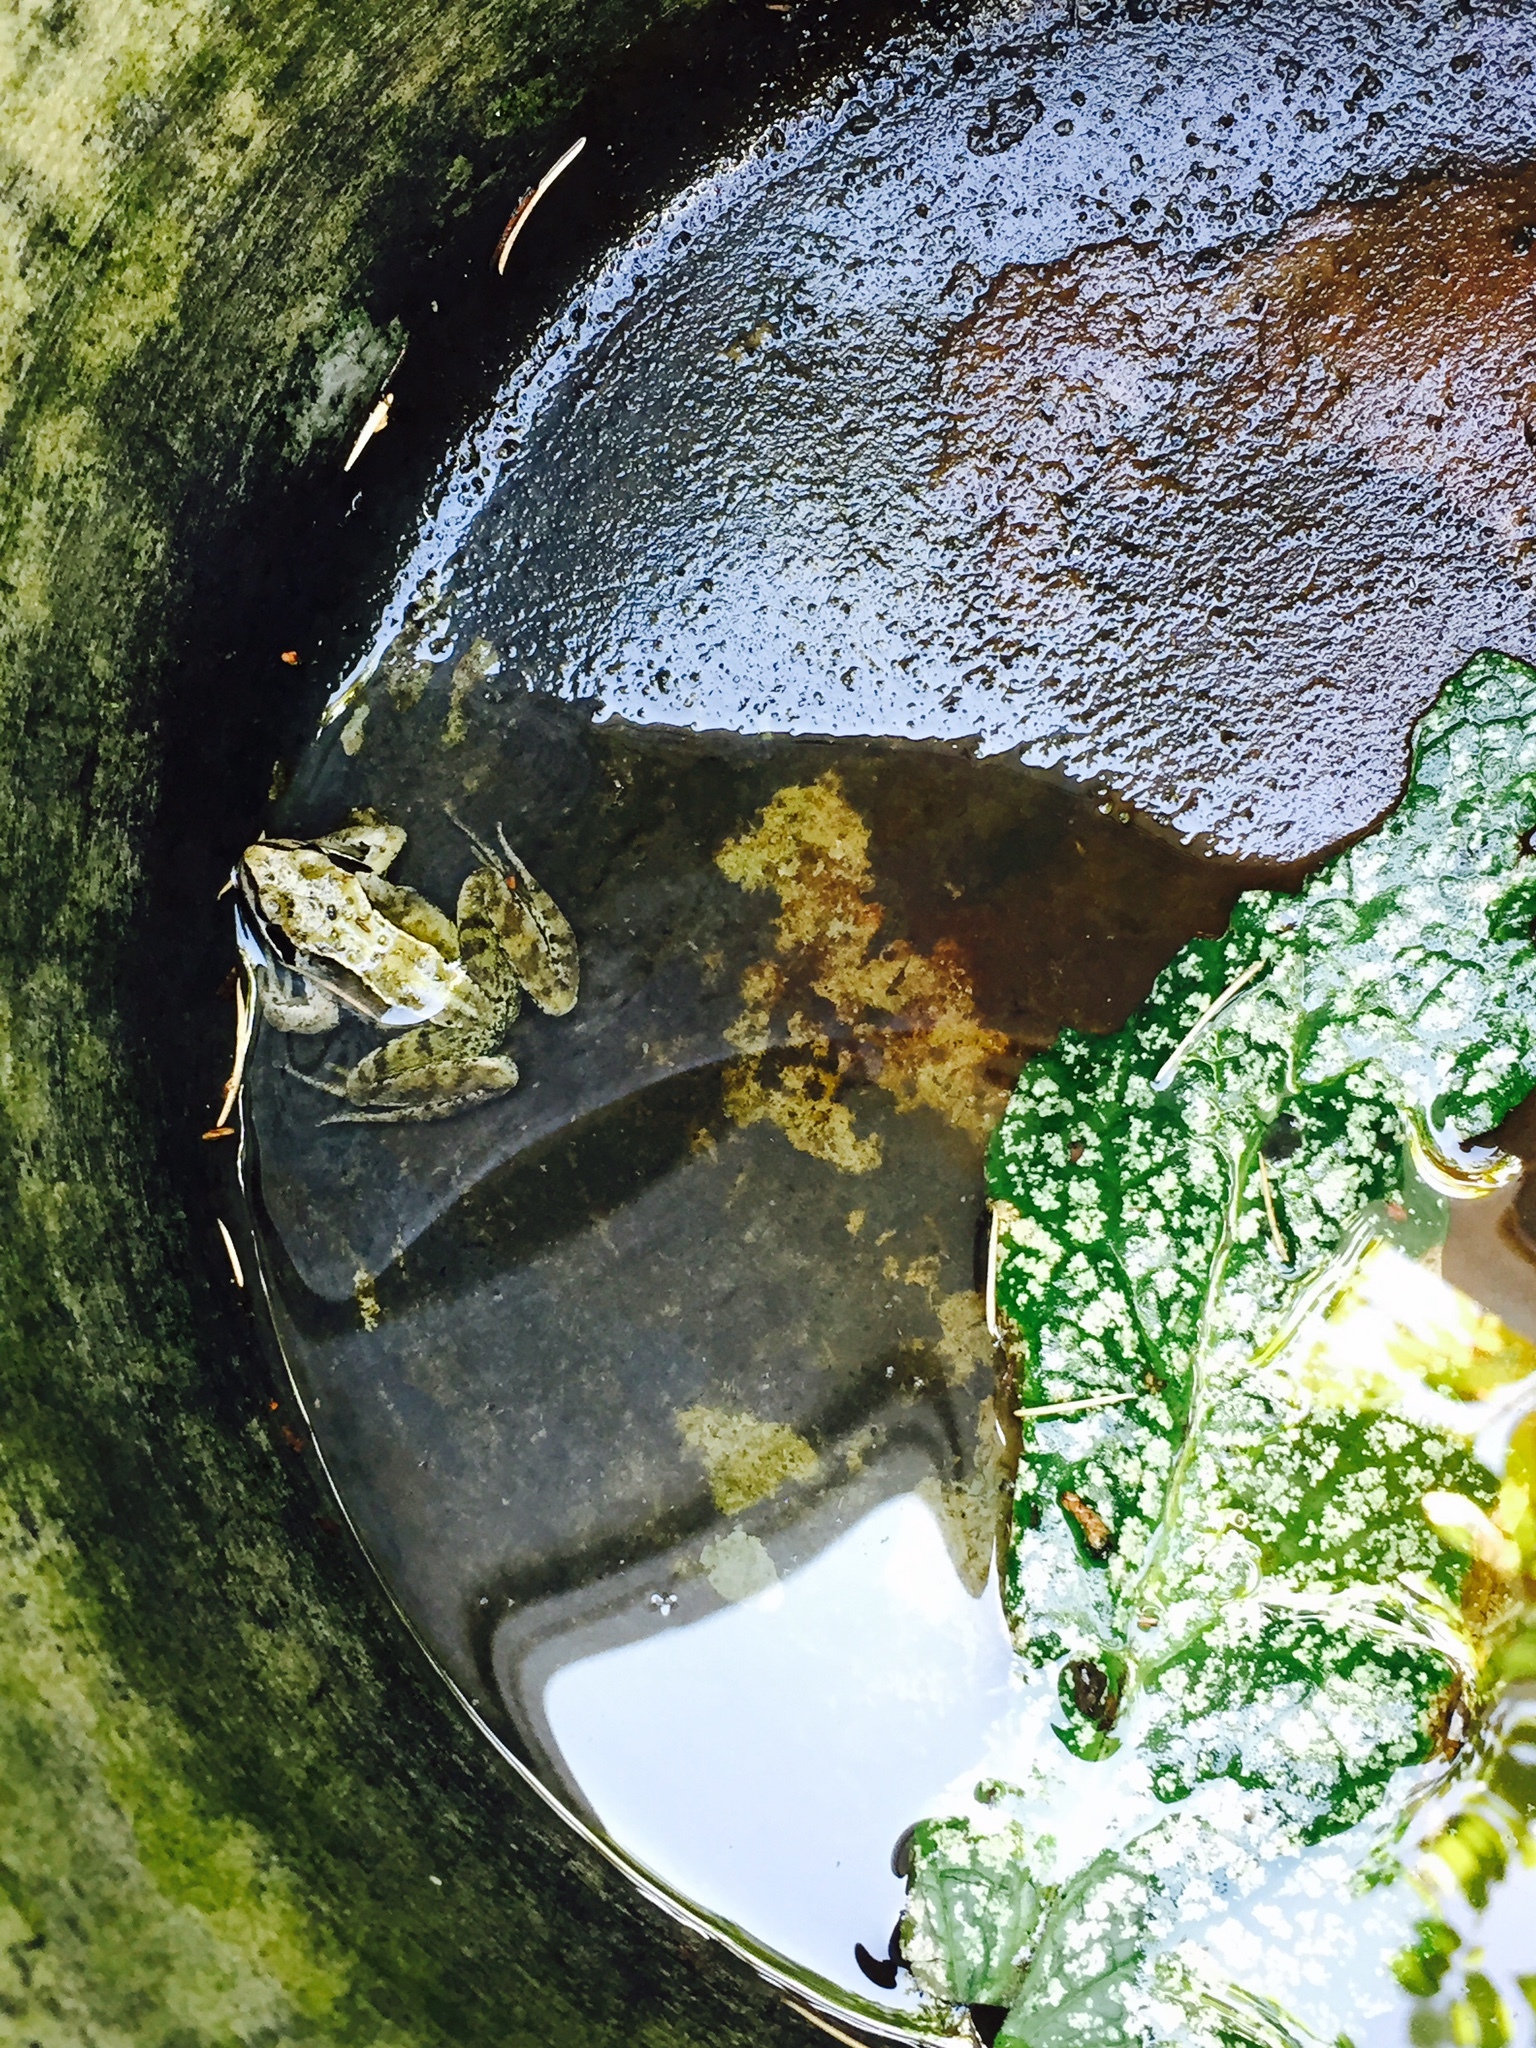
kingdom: Animalia
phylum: Chordata
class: Amphibia
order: Anura
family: Ranidae
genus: Rana
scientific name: Rana temporaria
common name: Common frog
